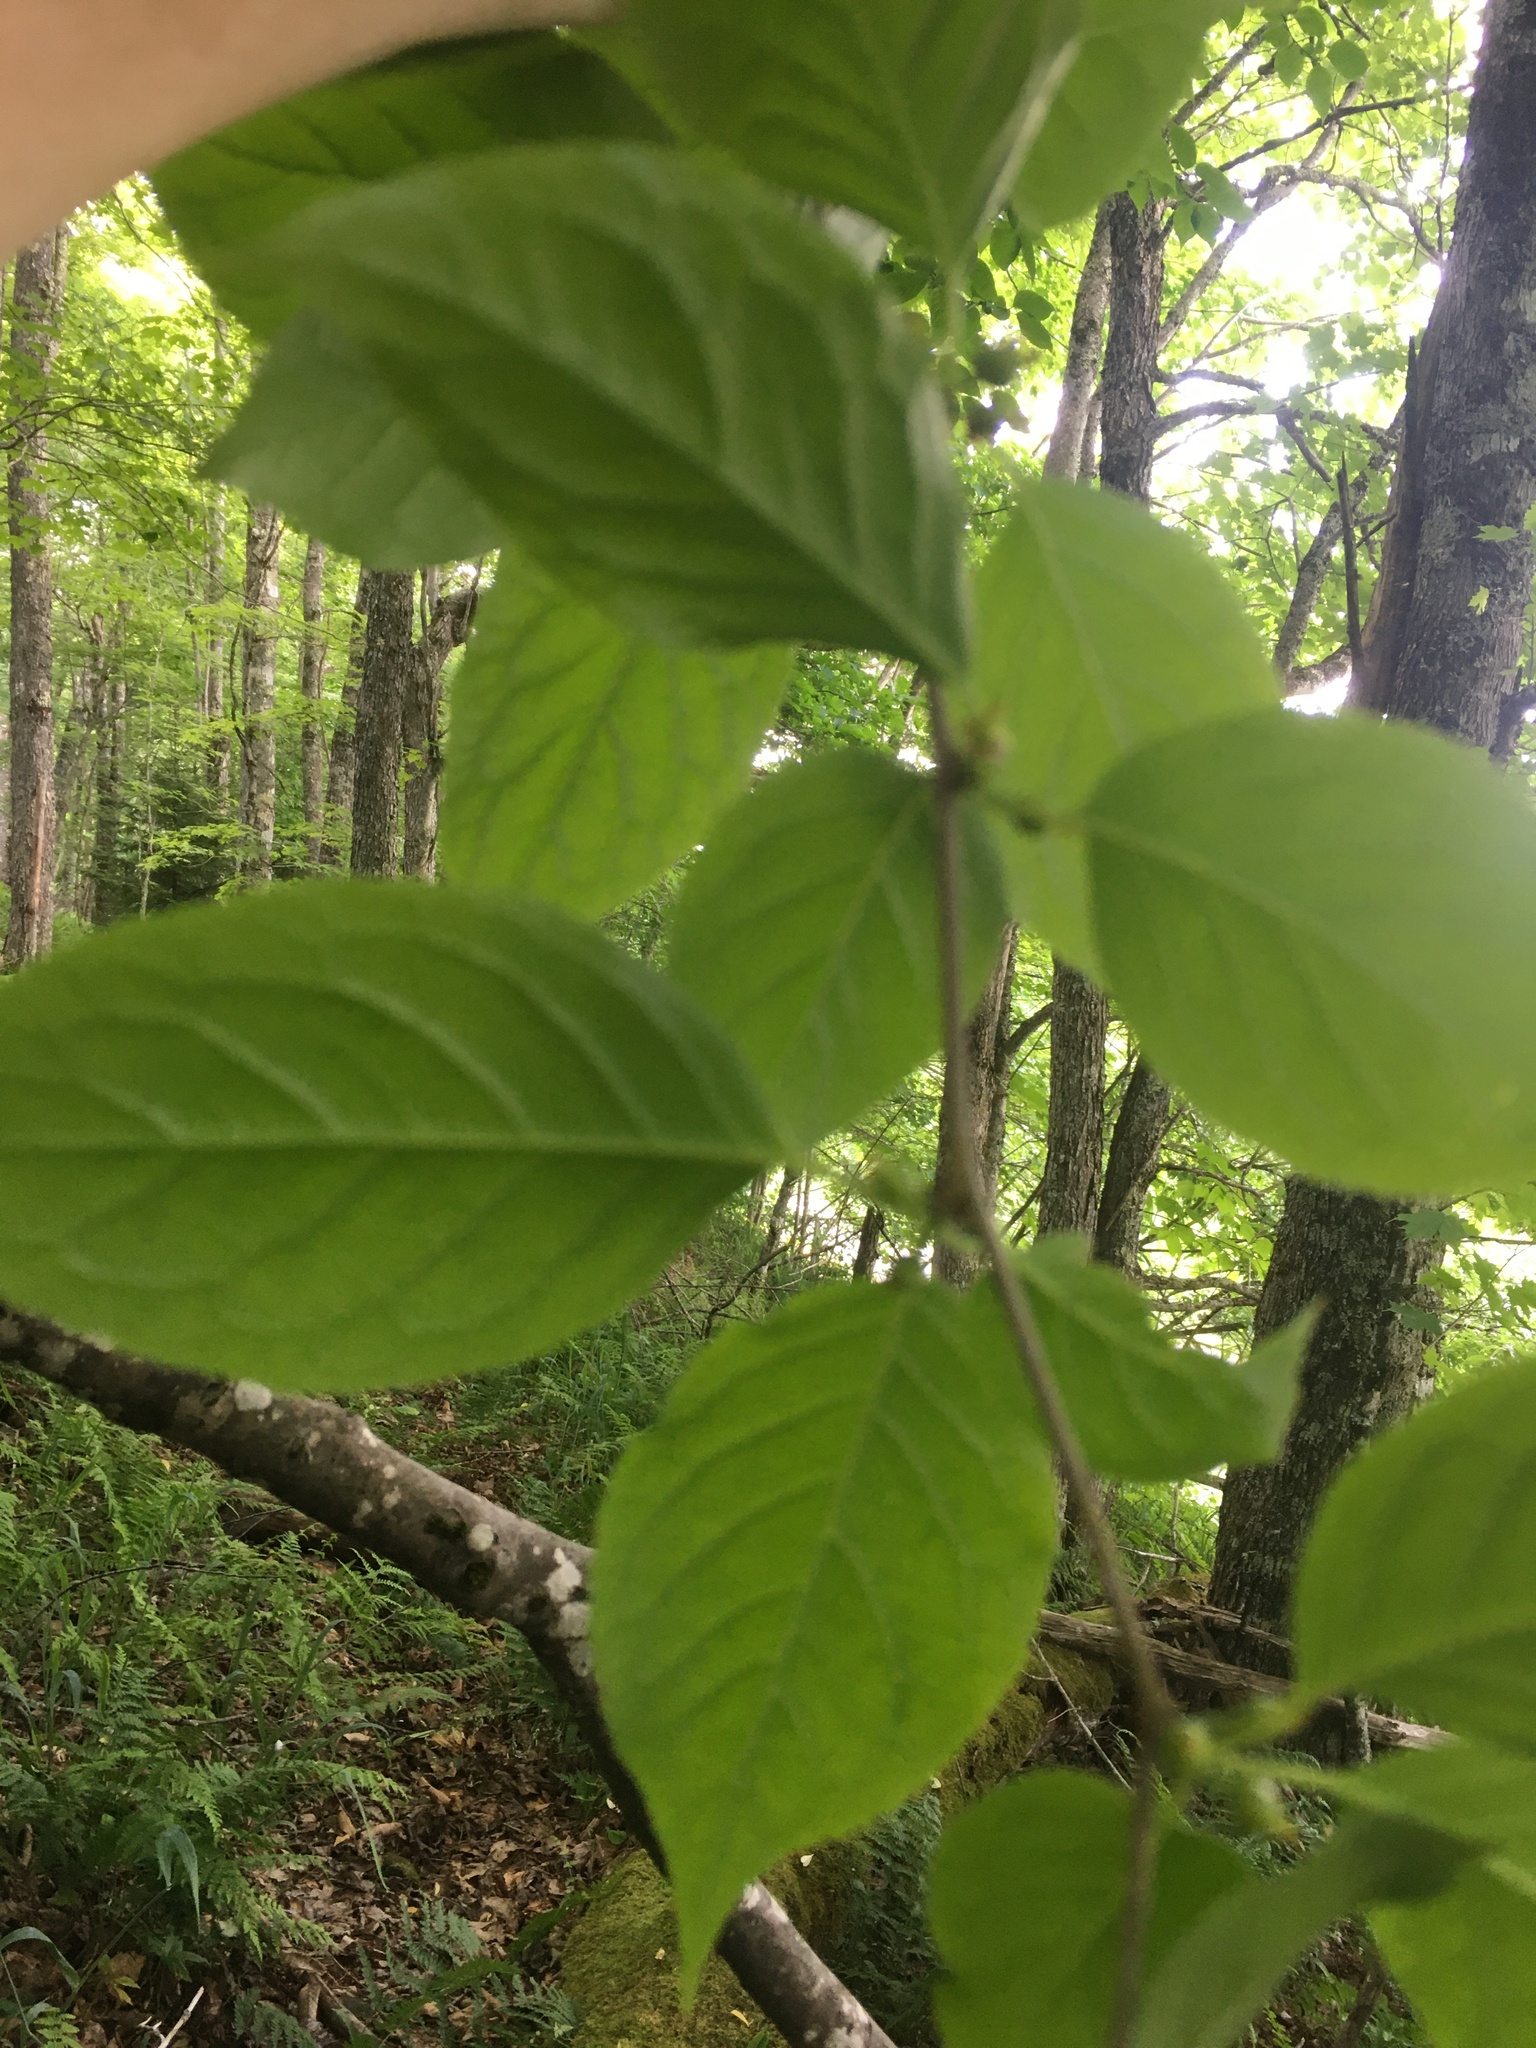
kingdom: Plantae
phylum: Tracheophyta
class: Magnoliopsida
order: Aquifoliales
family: Aquifoliaceae
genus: Ilex
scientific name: Ilex montana
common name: Mountain winterberry
